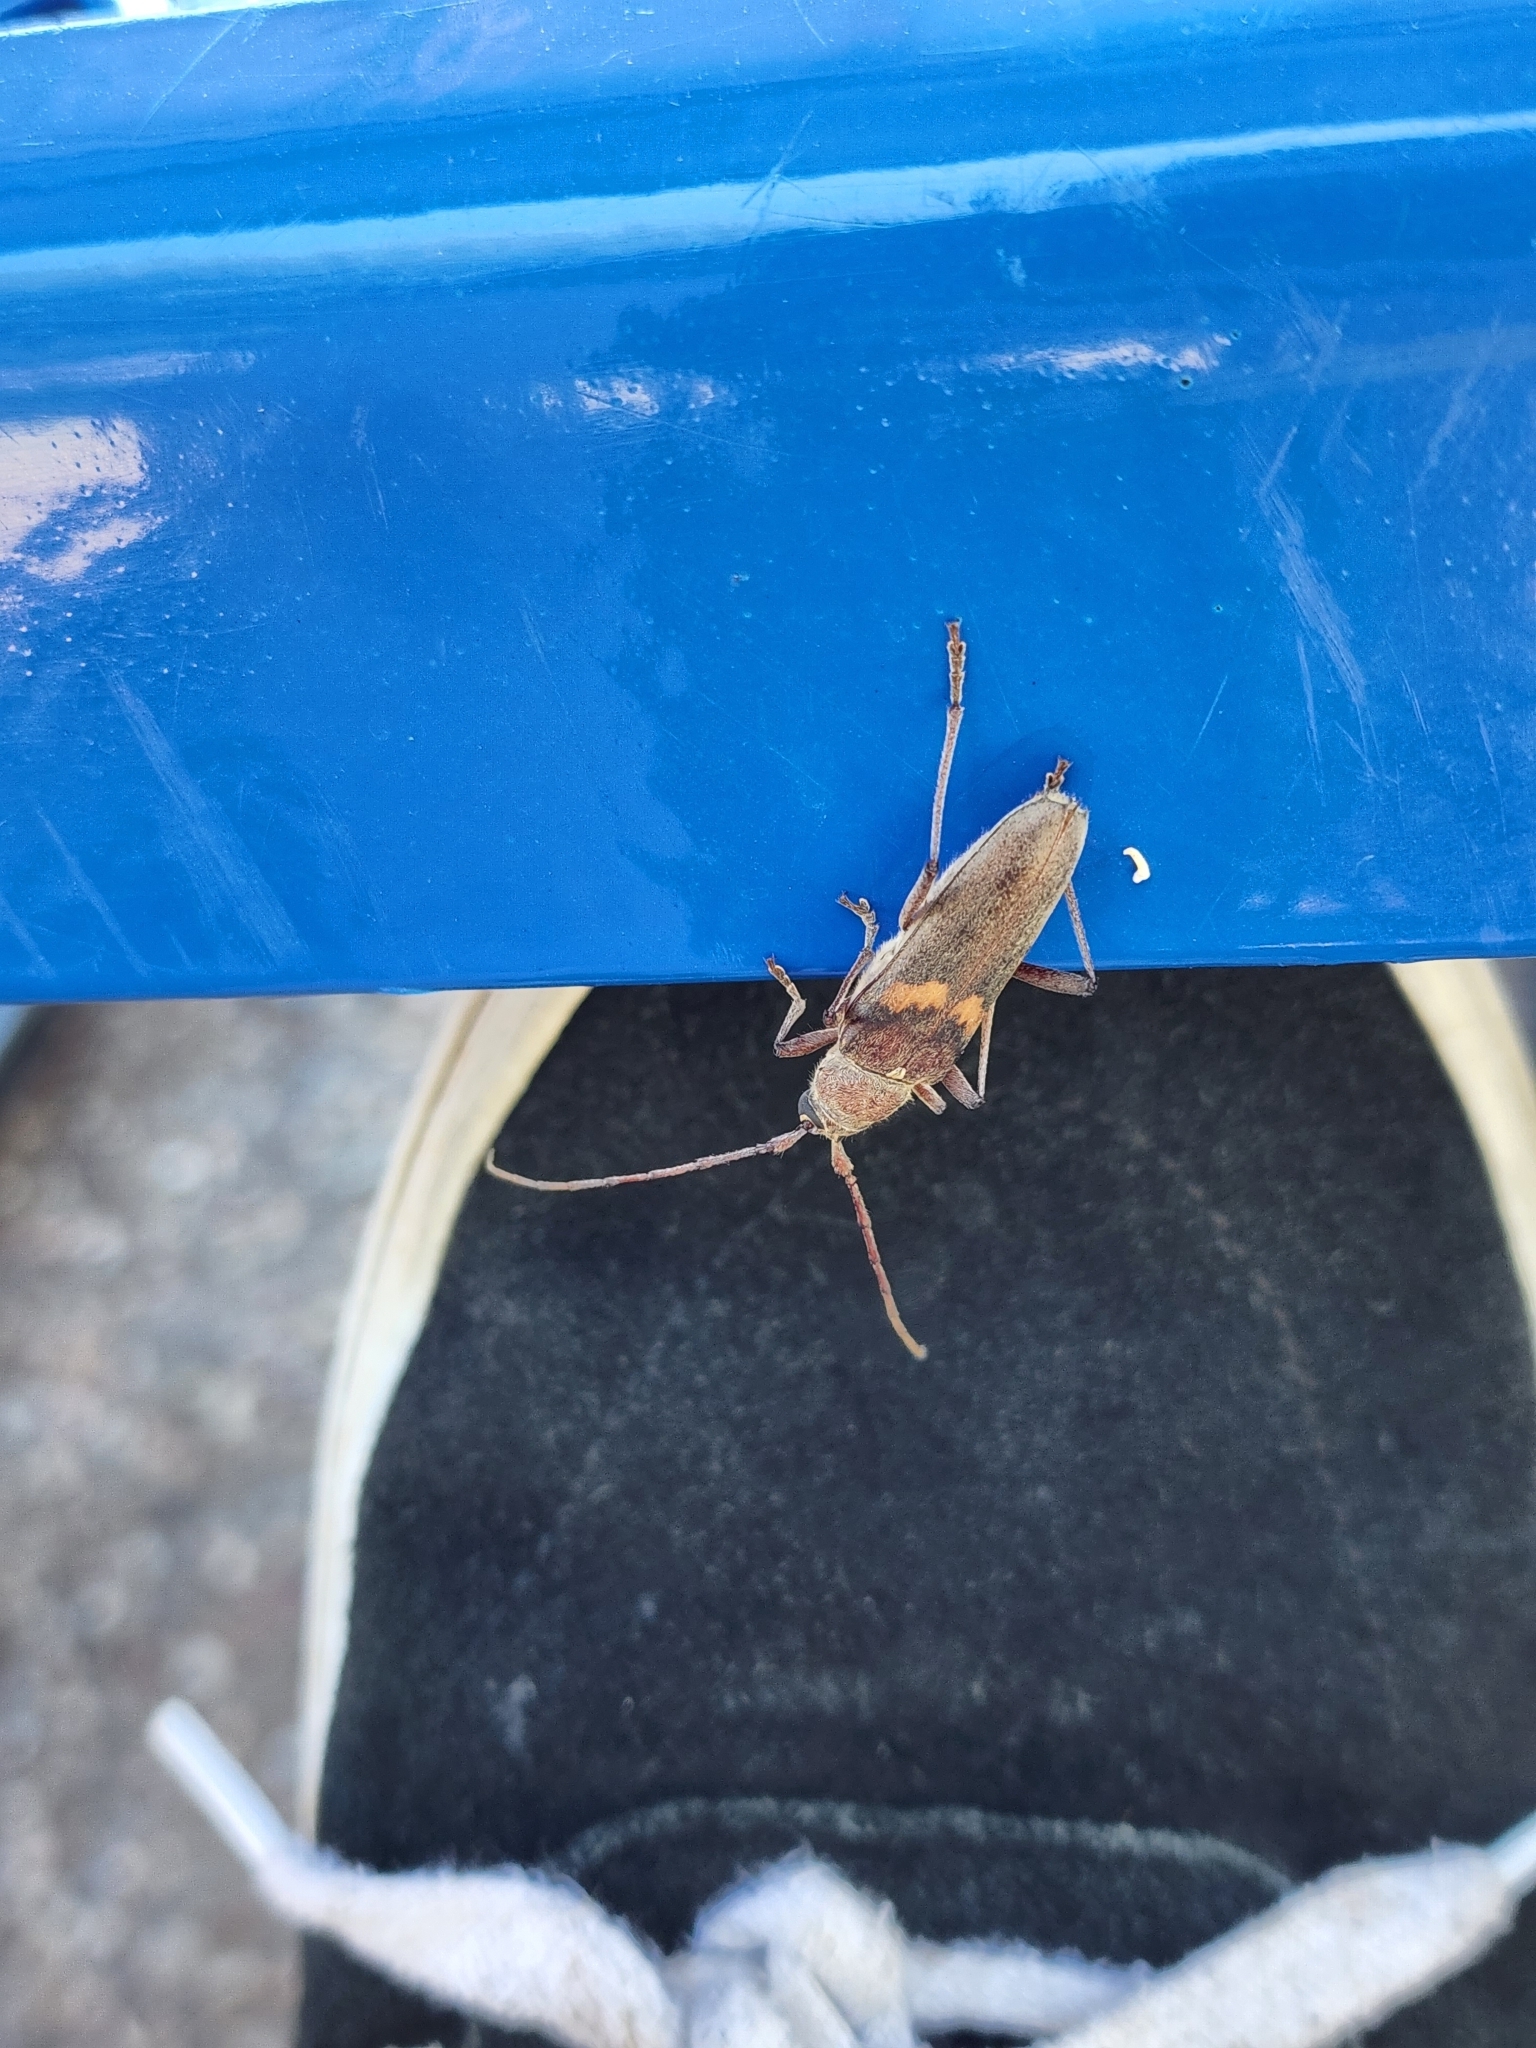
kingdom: Animalia
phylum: Arthropoda
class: Insecta
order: Coleoptera
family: Cerambycidae
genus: Knulliana
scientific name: Knulliana cincta
